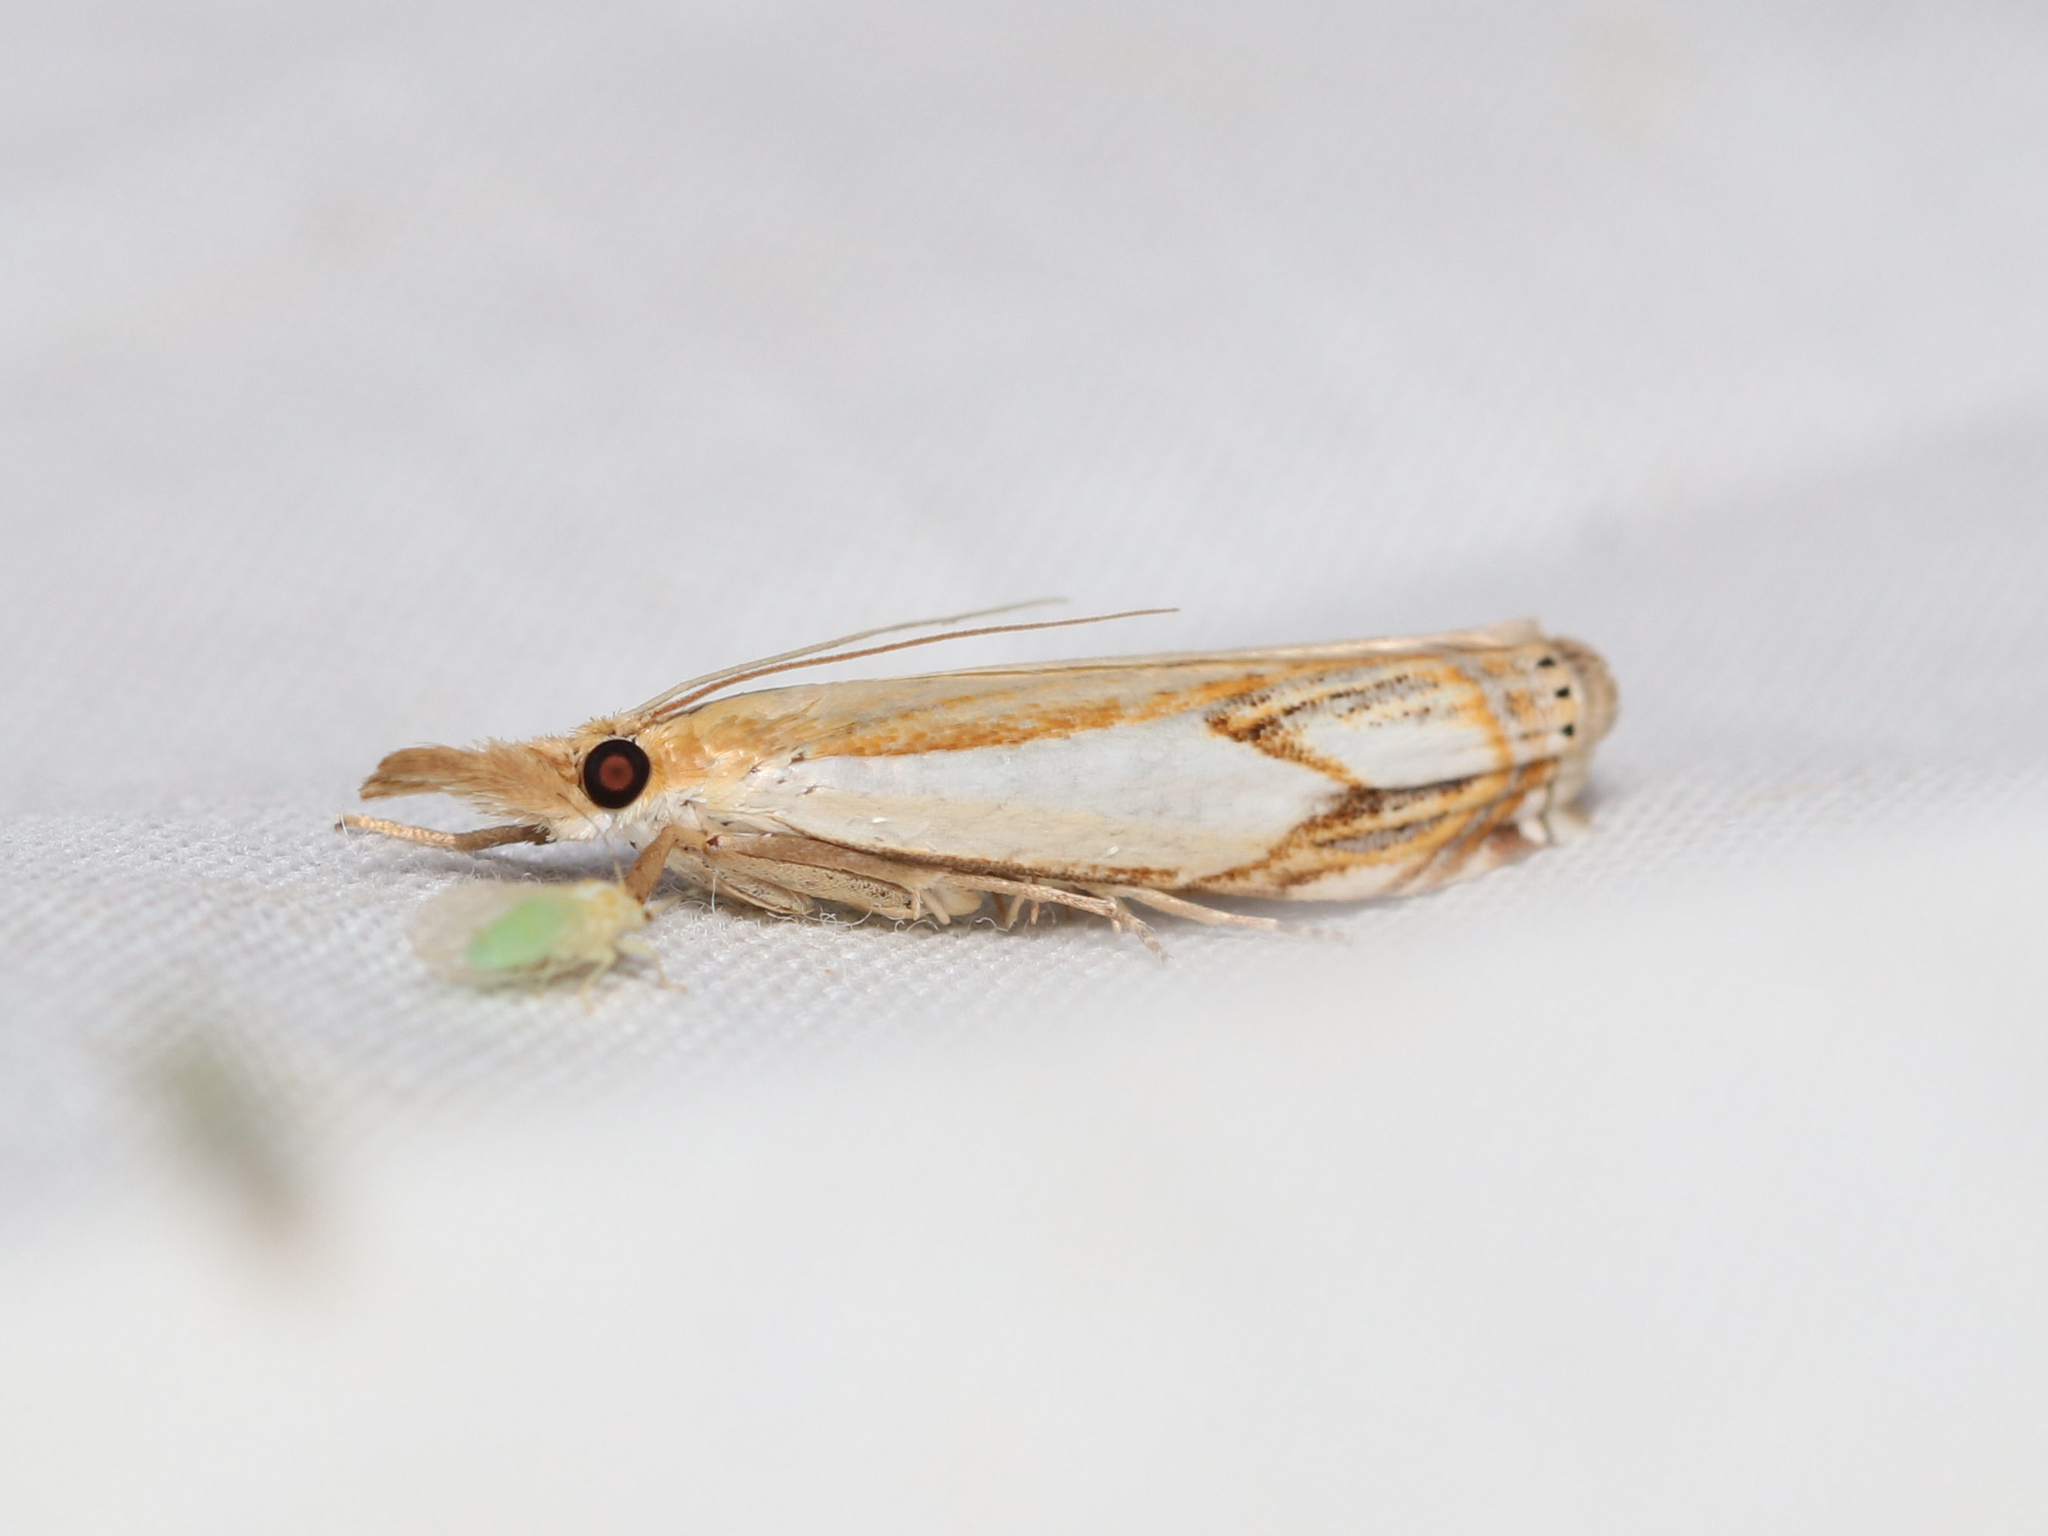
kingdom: Animalia
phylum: Arthropoda
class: Insecta
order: Lepidoptera
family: Crambidae
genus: Crambus
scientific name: Crambus agitatellus
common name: Double-banded grass-veneer
